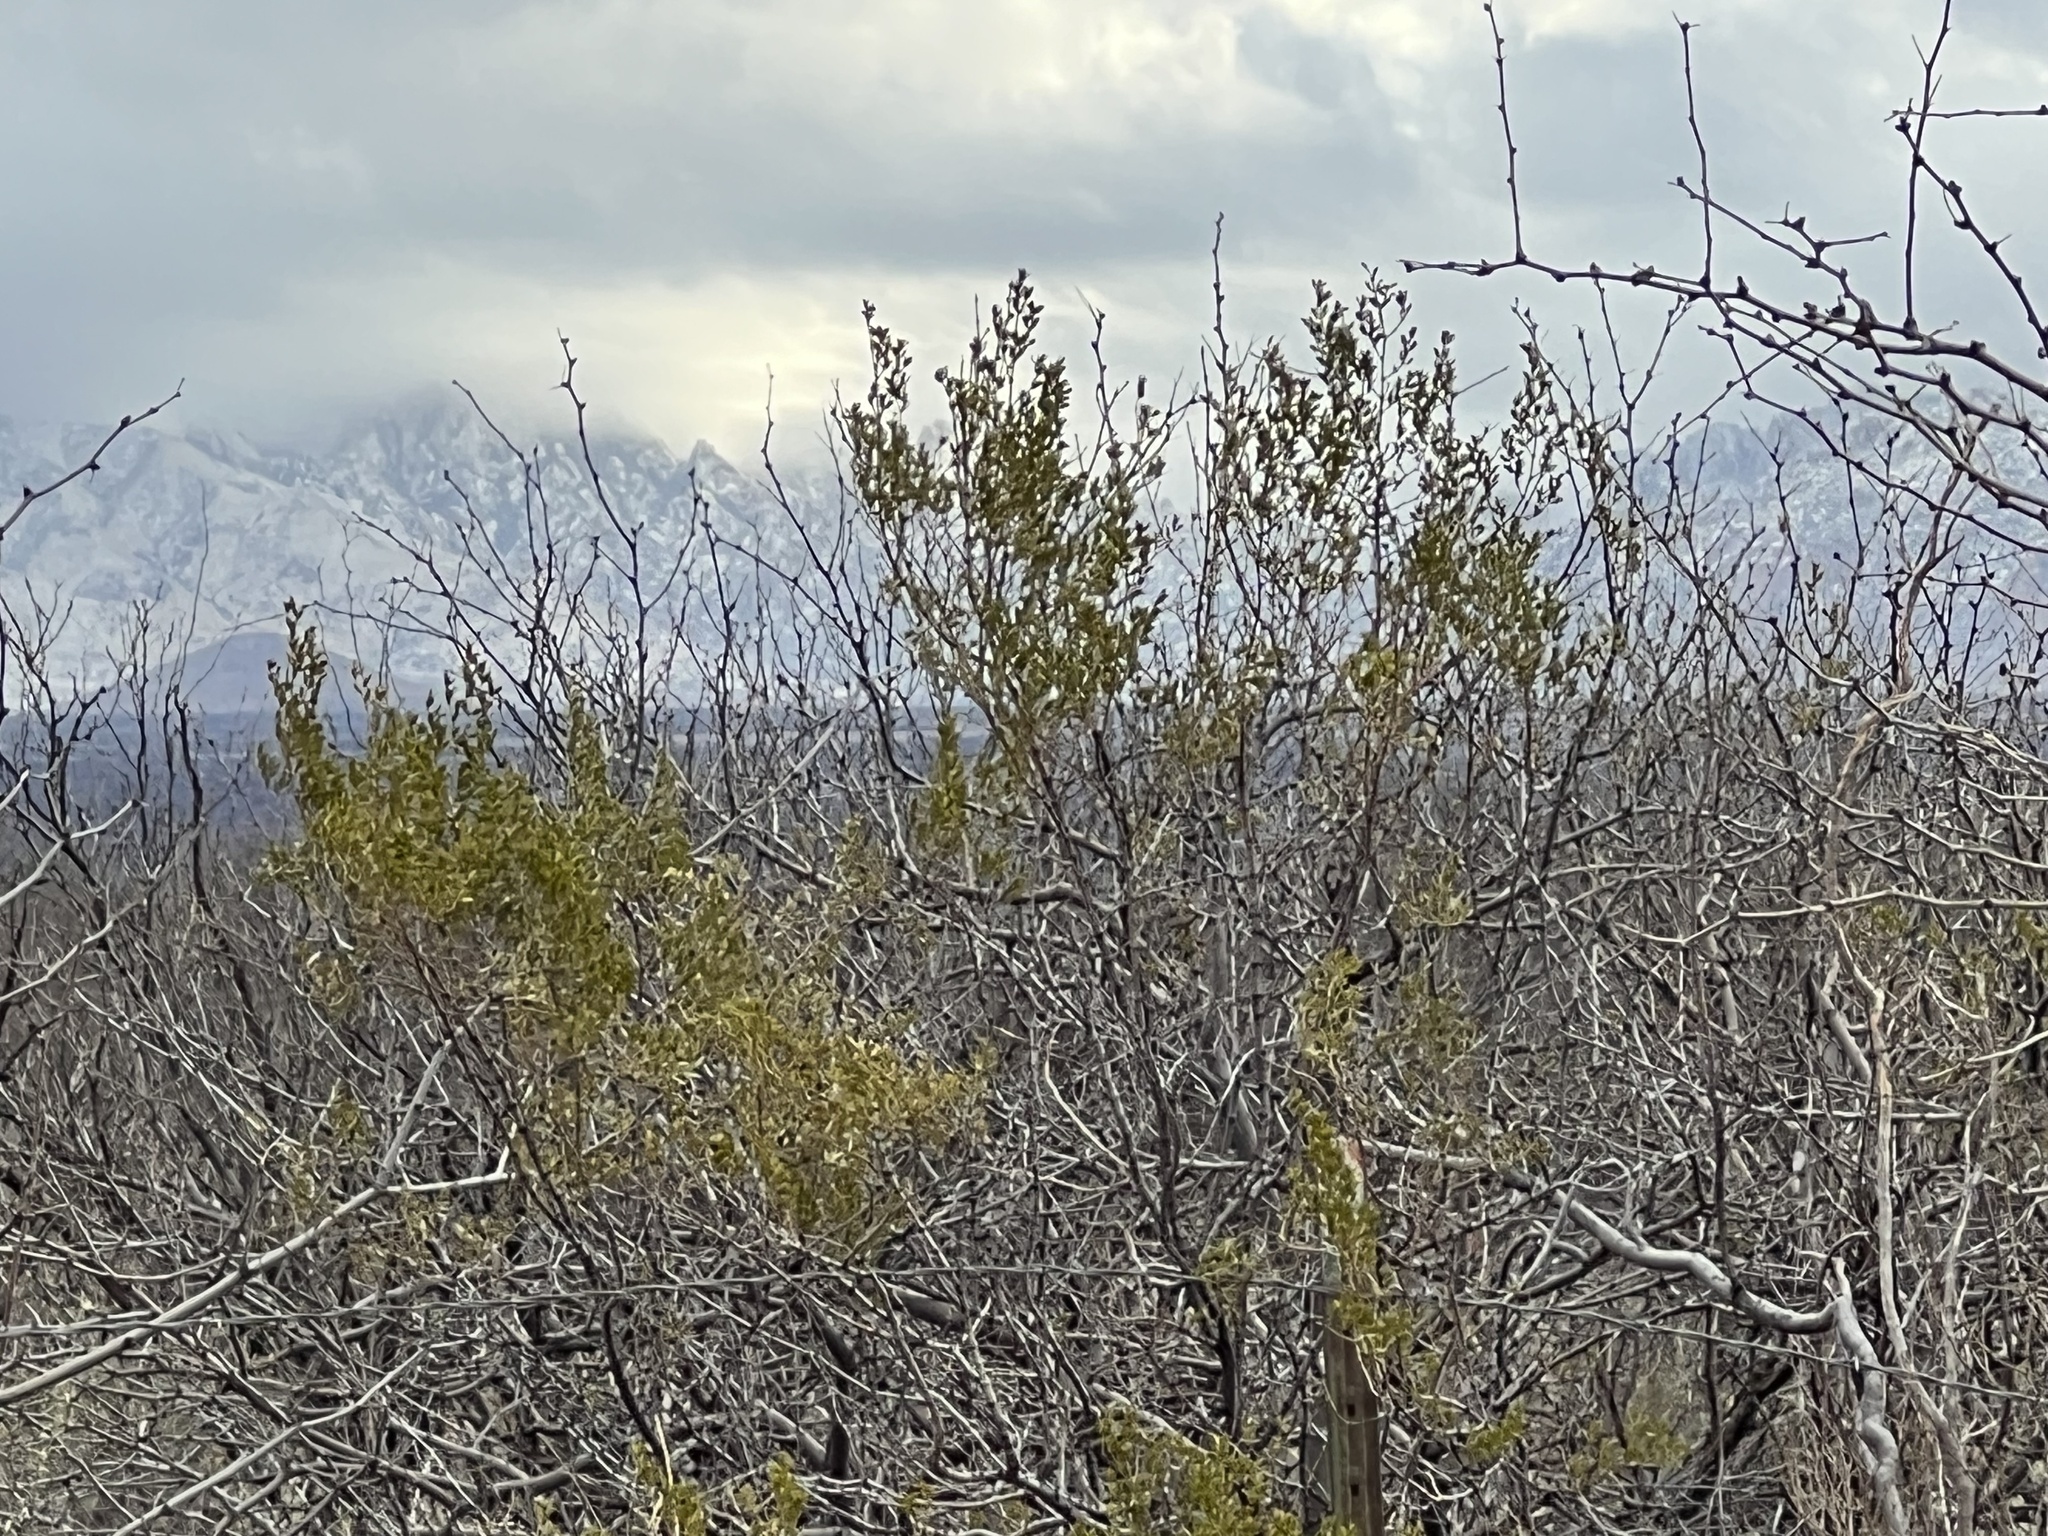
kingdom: Plantae
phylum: Tracheophyta
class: Magnoliopsida
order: Zygophyllales
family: Zygophyllaceae
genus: Larrea
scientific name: Larrea tridentata
